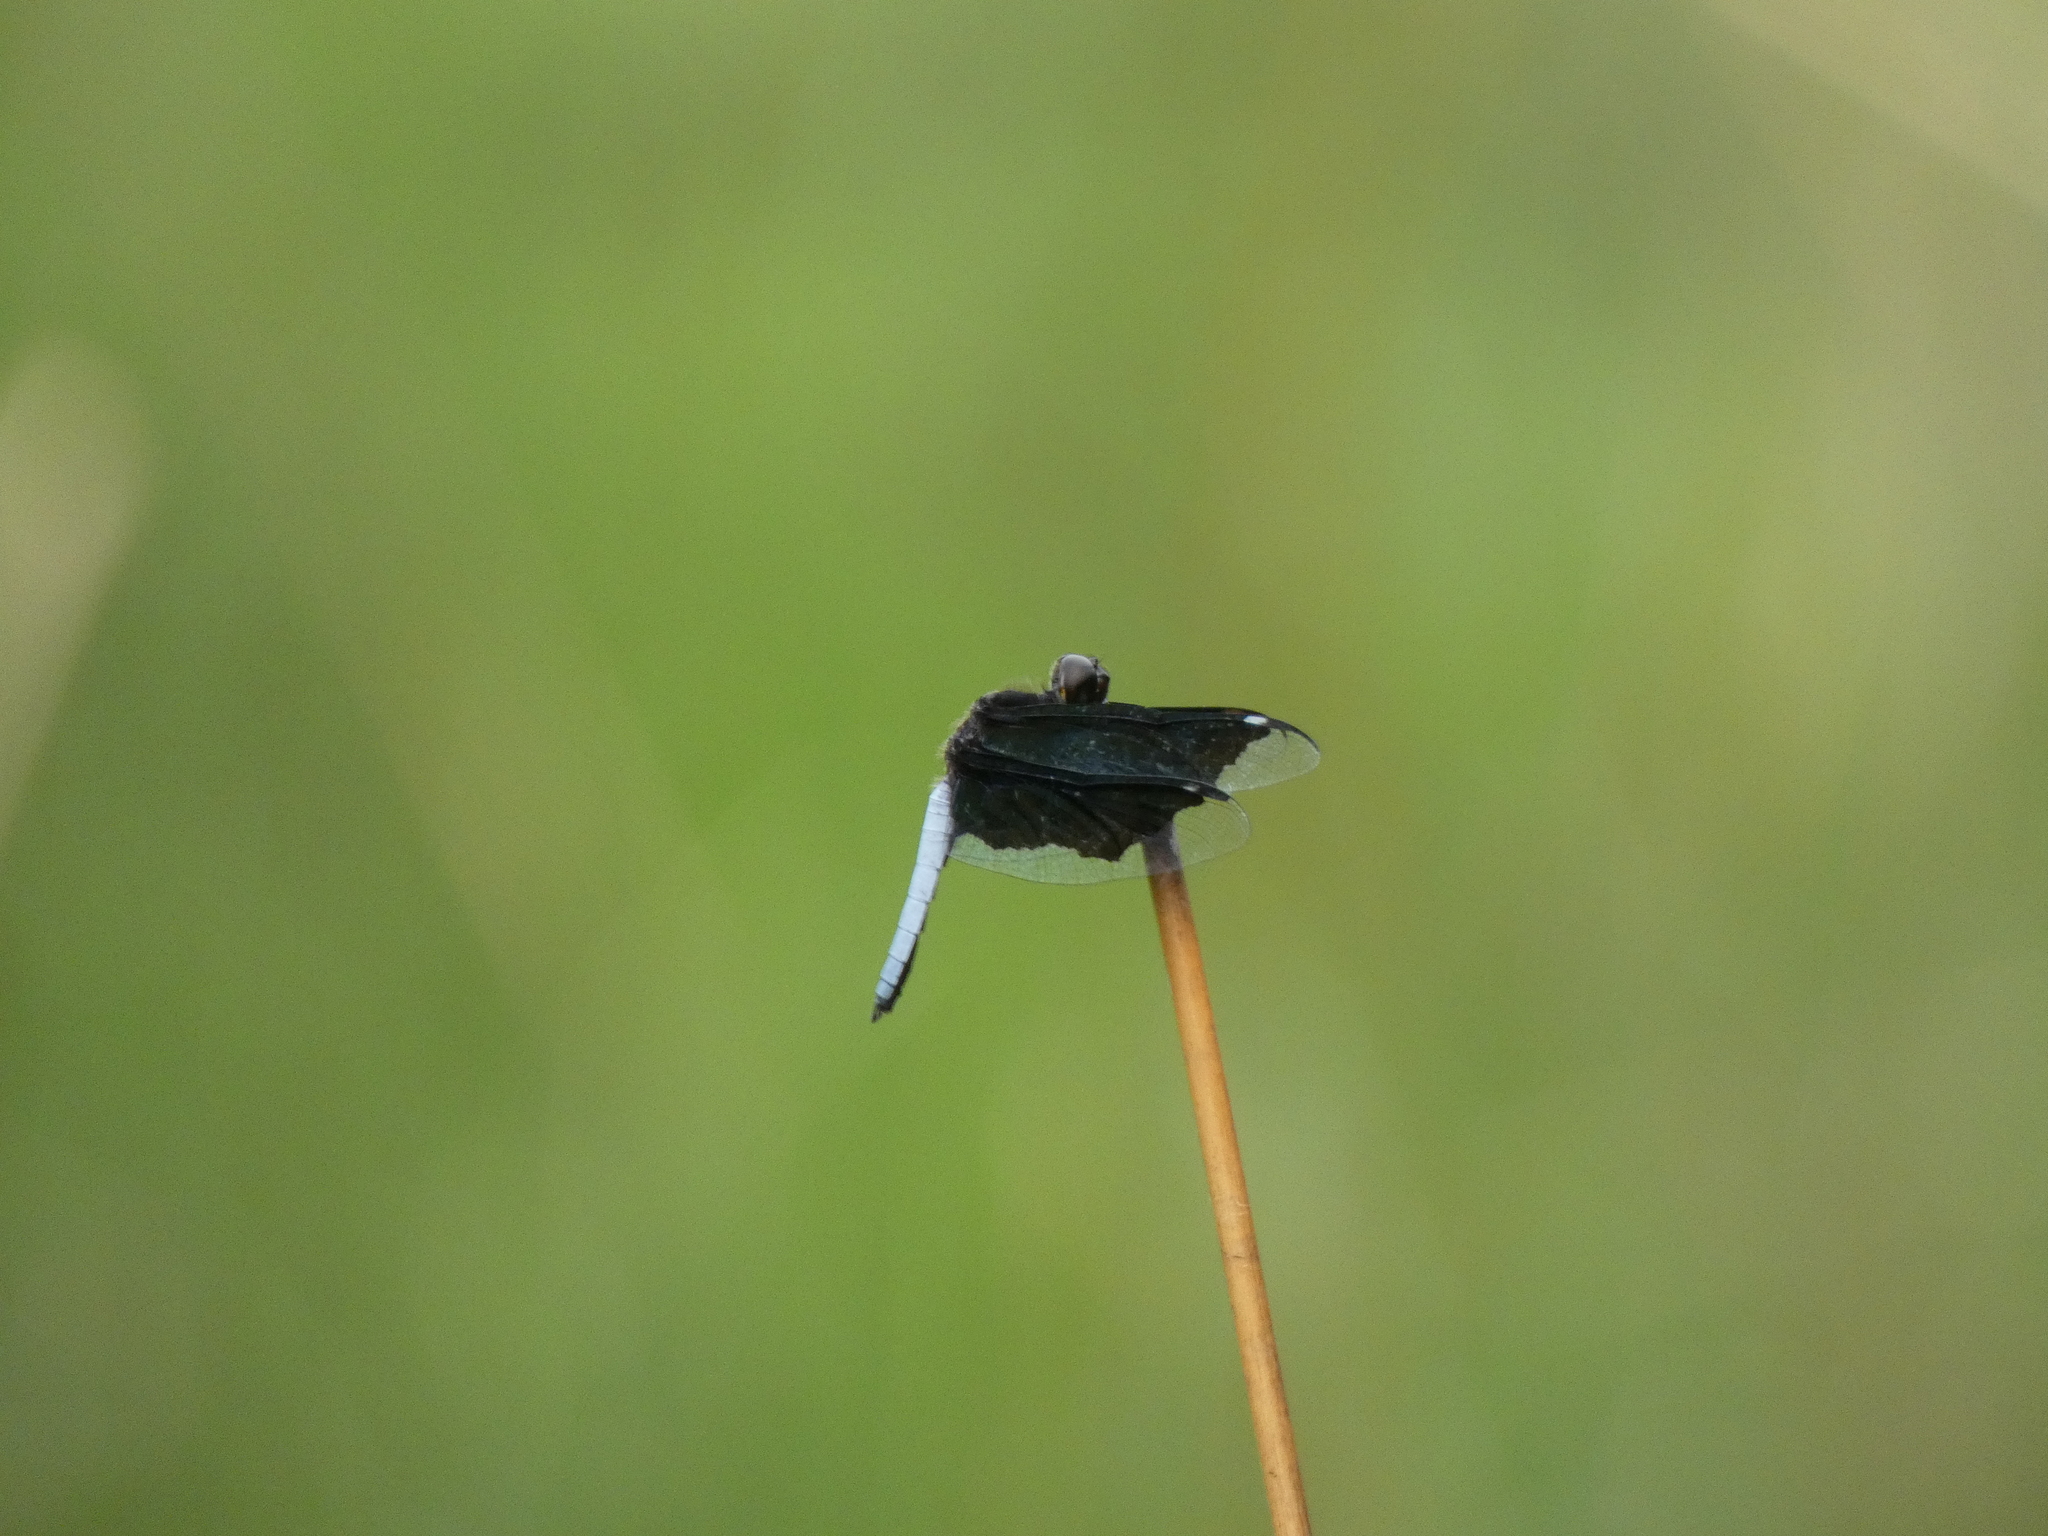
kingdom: Animalia
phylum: Arthropoda
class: Insecta
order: Odonata
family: Libellulidae
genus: Palpopleura
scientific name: Palpopleura lucia
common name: Lucia widow
